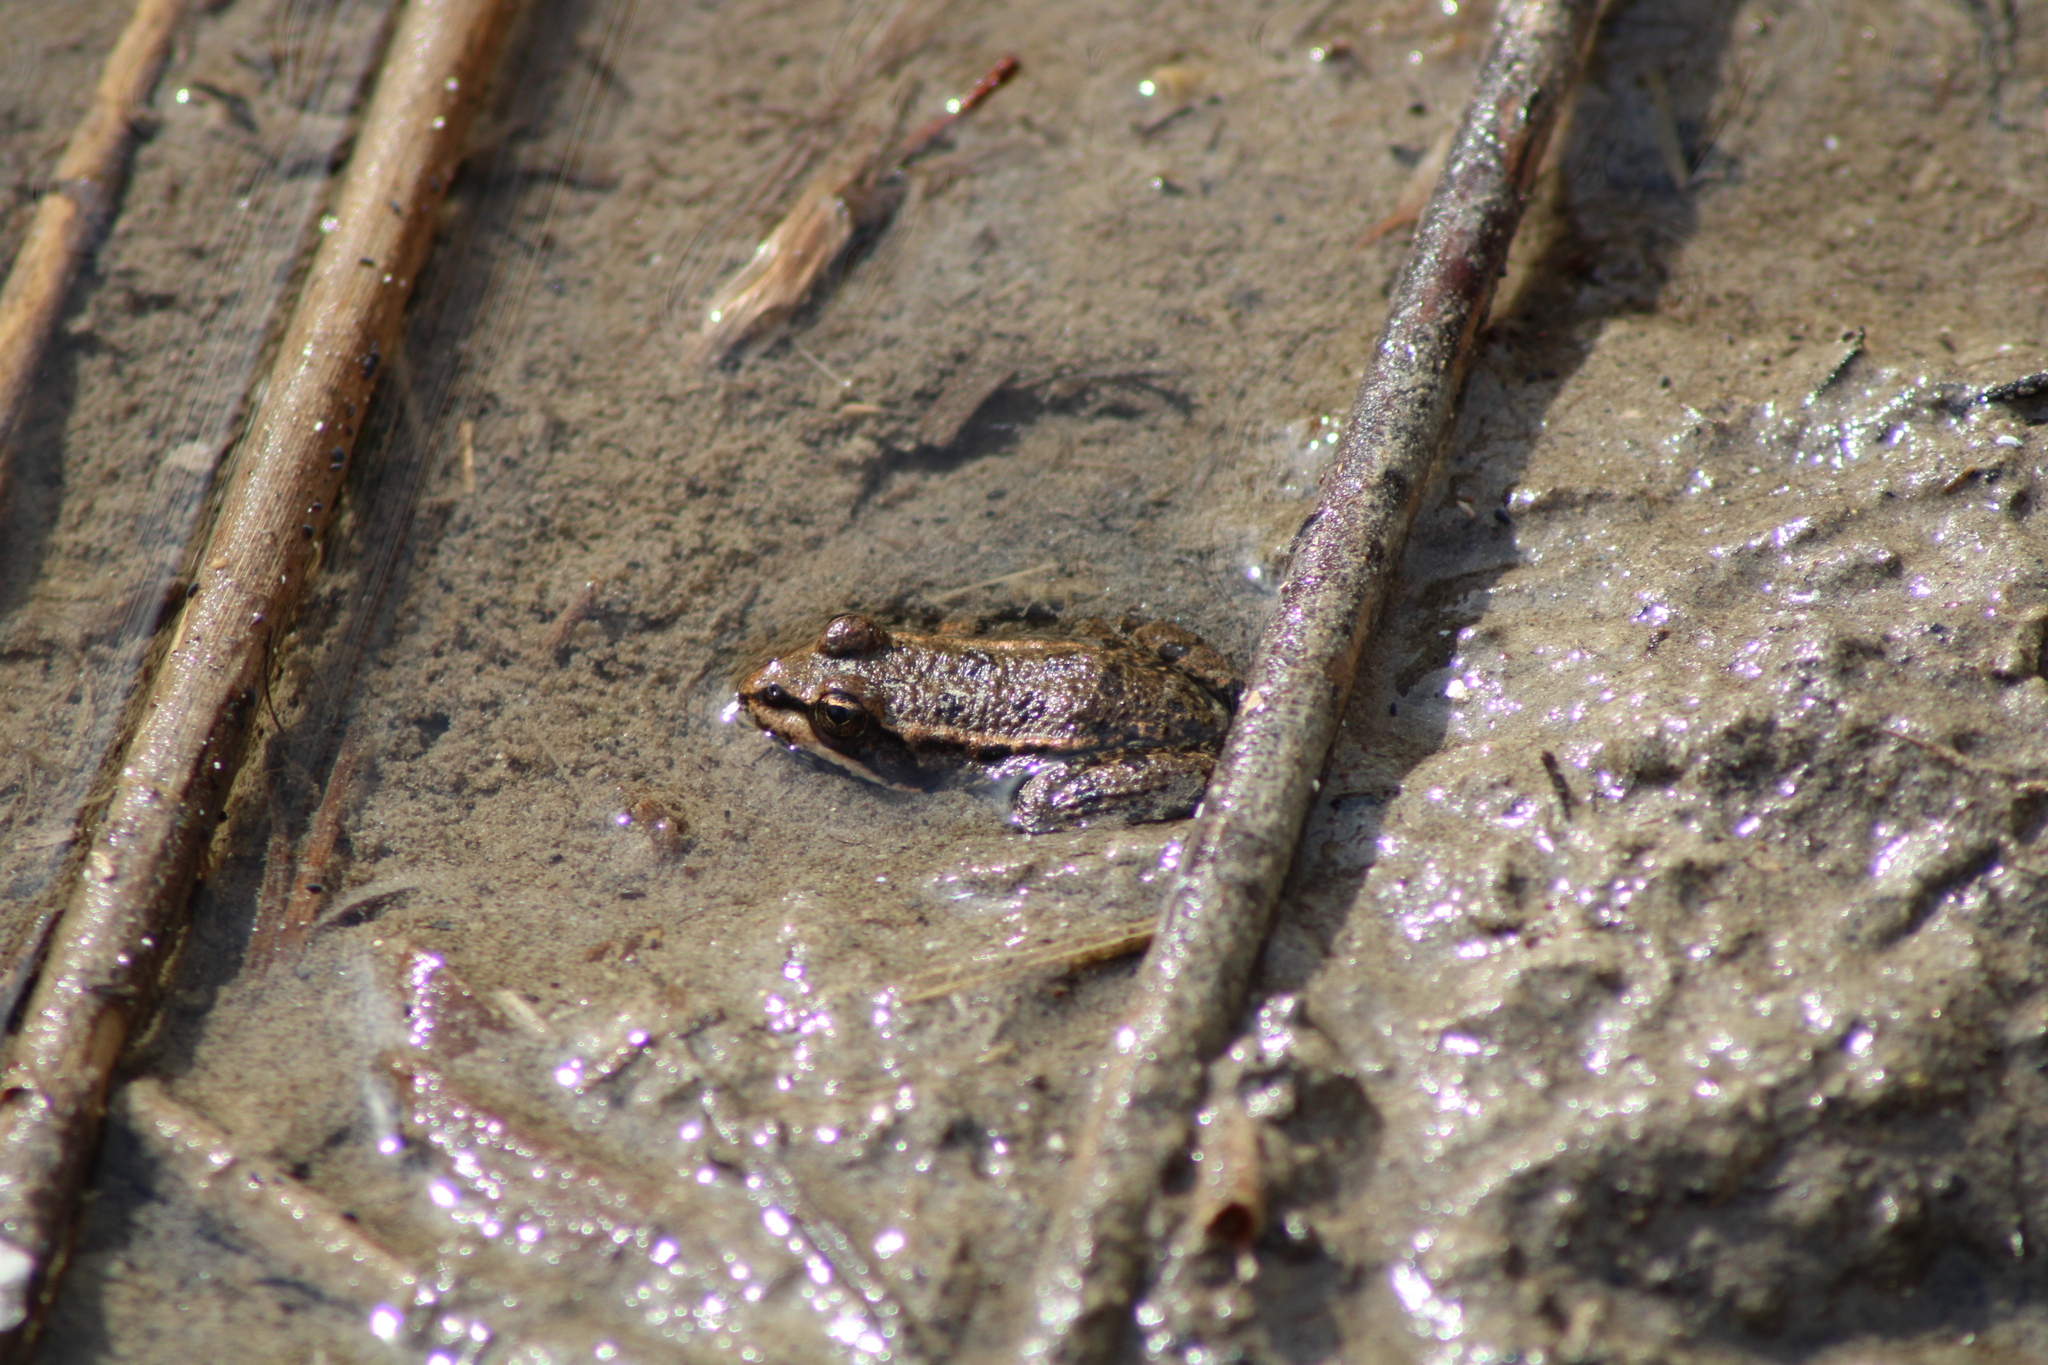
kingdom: Animalia
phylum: Chordata
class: Amphibia
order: Anura
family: Ranidae
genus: Pelophylax
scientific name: Pelophylax
